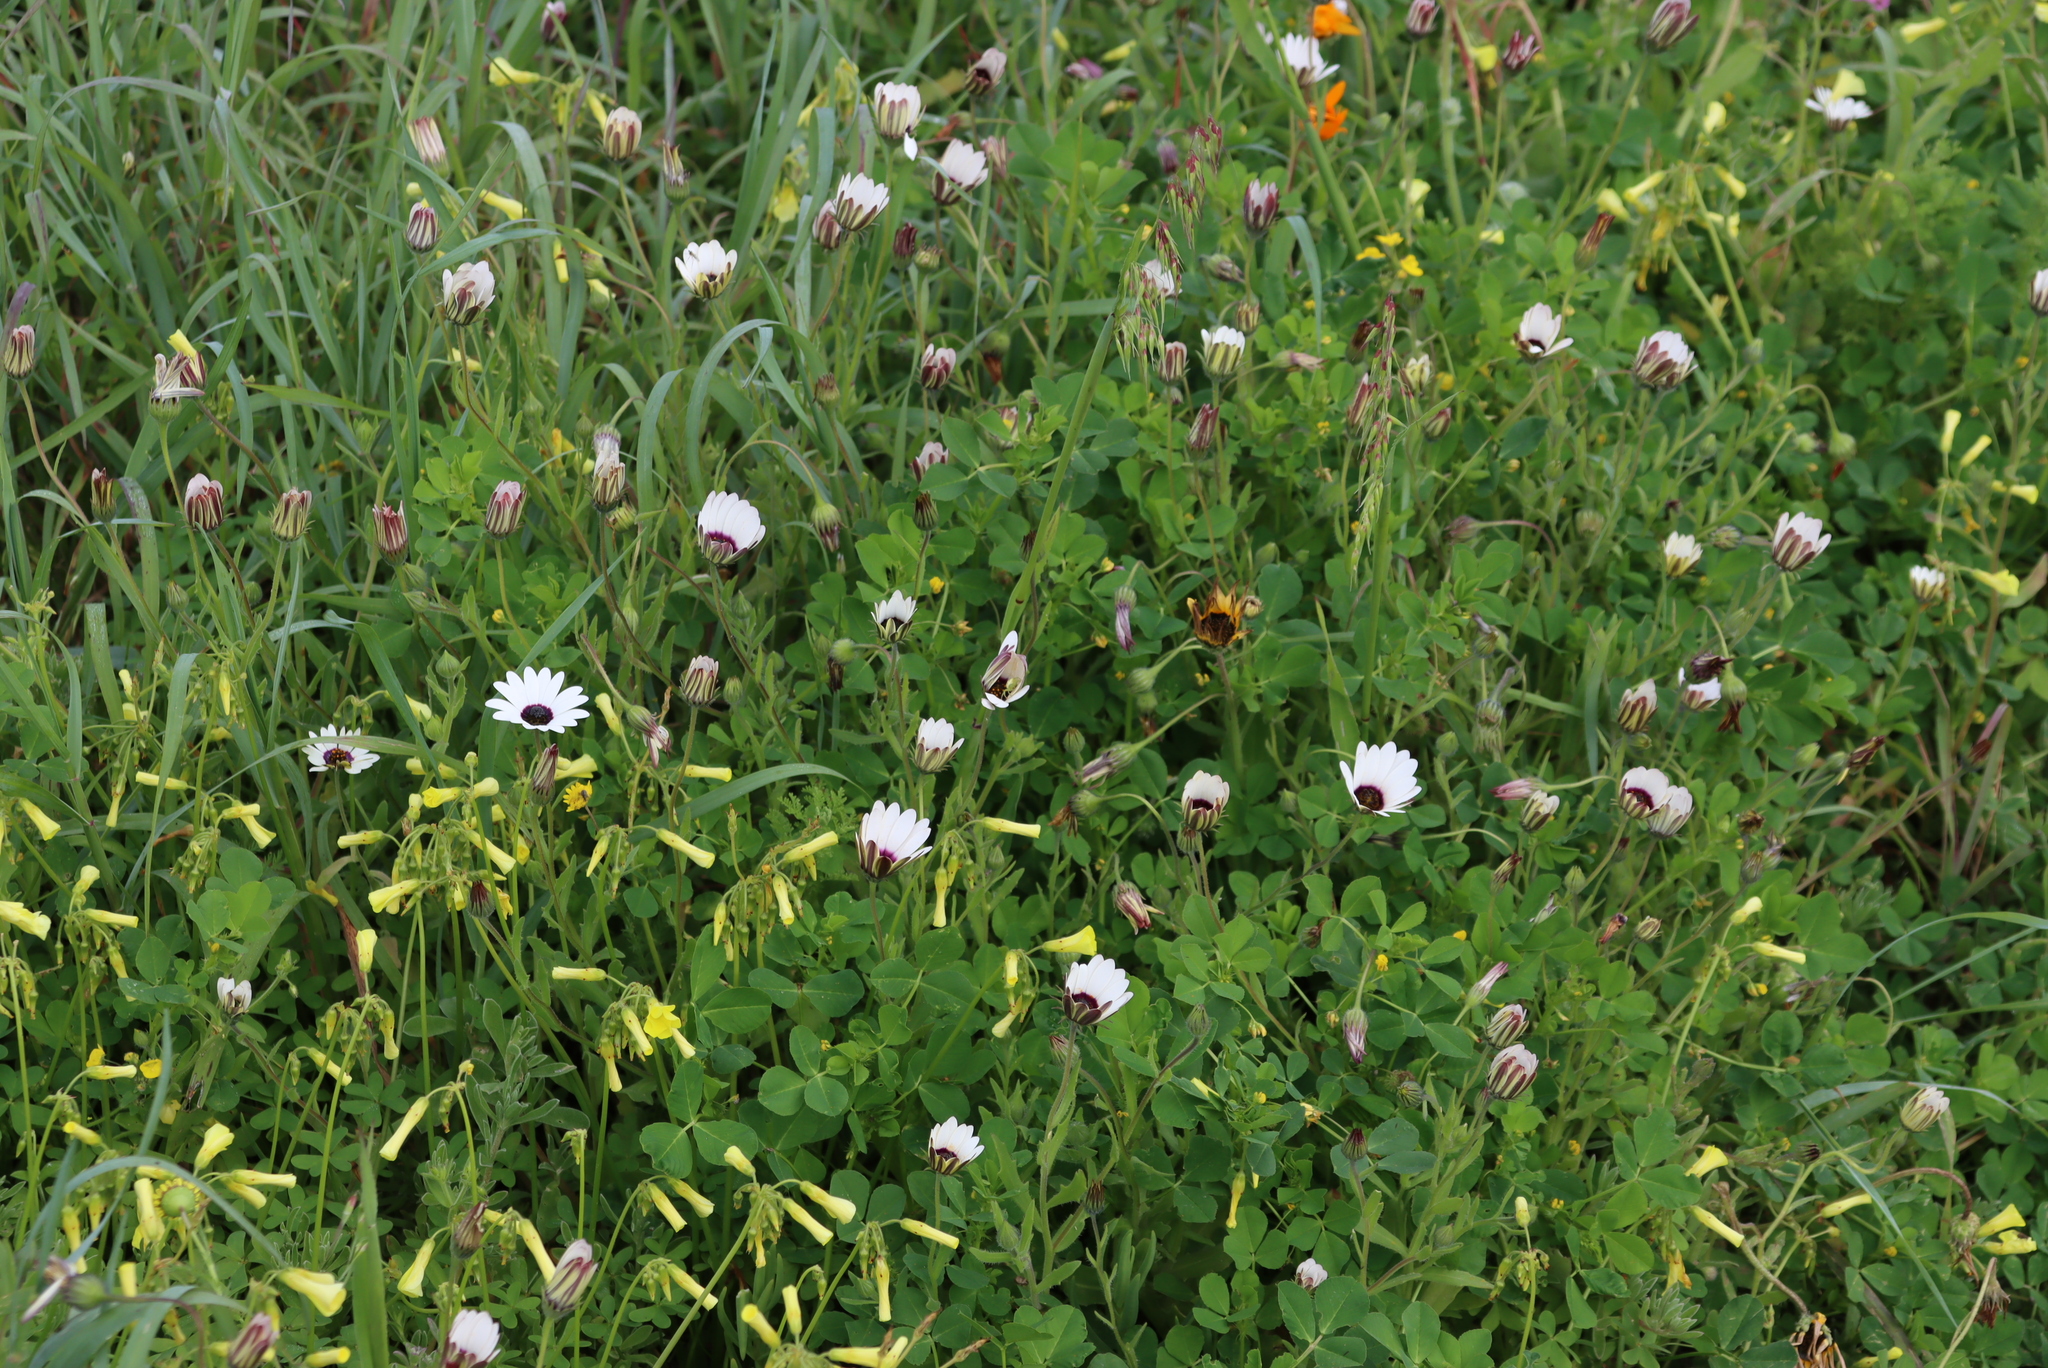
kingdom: Plantae
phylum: Tracheophyta
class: Magnoliopsida
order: Oxalidales
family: Oxalidaceae
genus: Oxalis
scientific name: Oxalis pes-caprae
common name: Bermuda-buttercup
